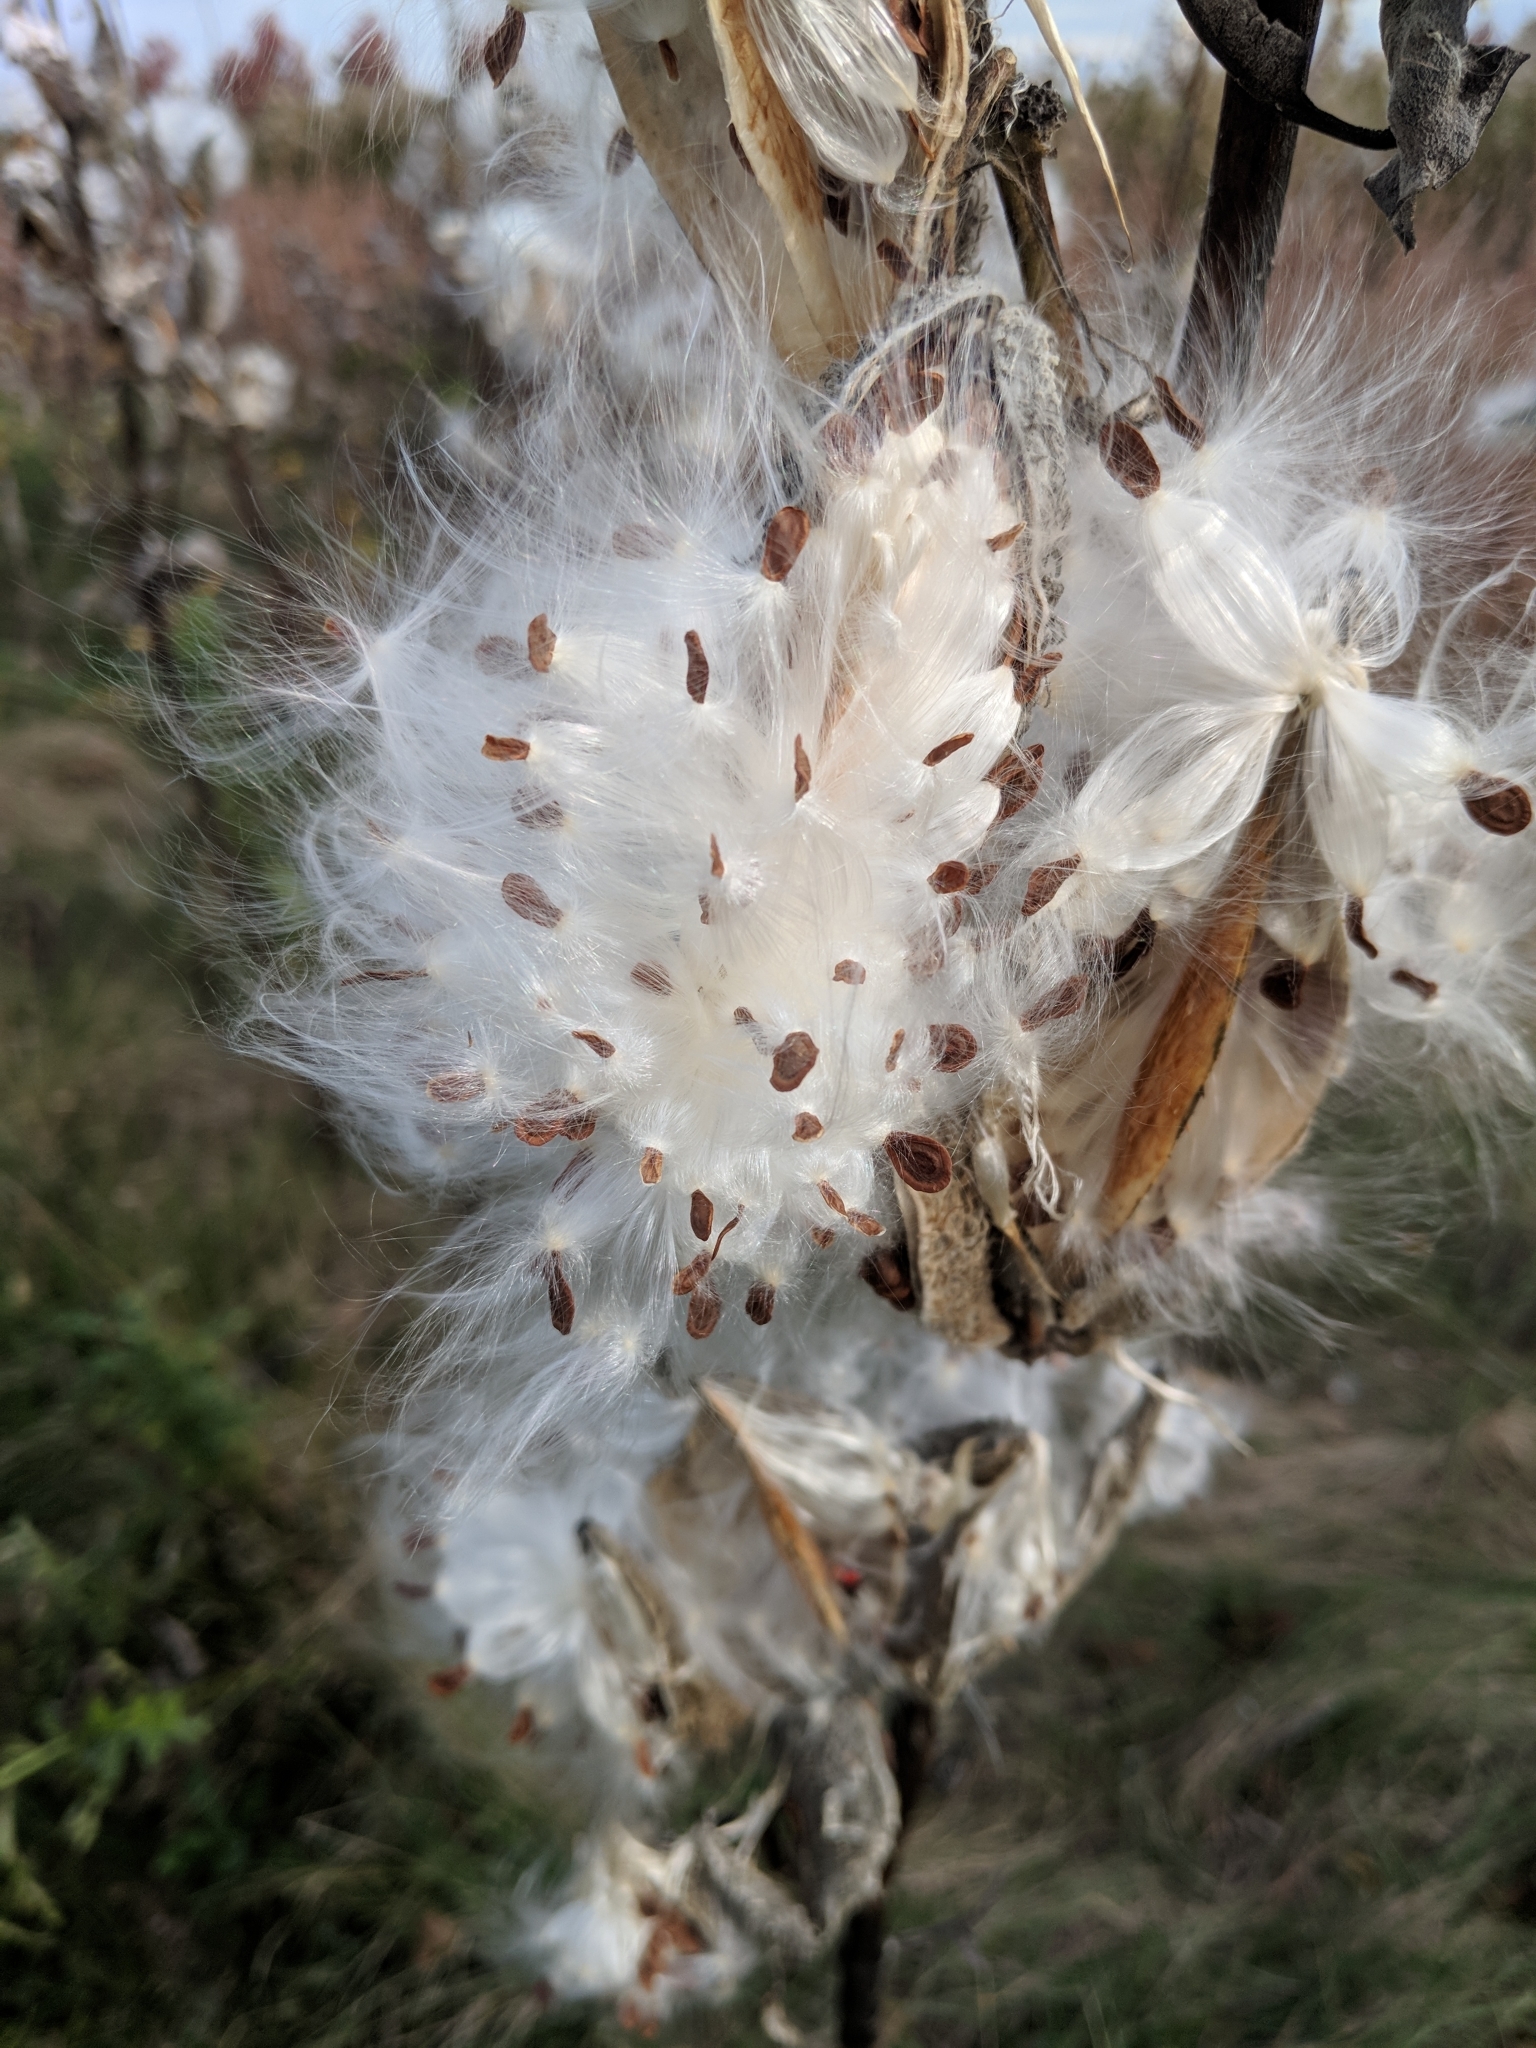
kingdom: Plantae
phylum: Tracheophyta
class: Magnoliopsida
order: Gentianales
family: Apocynaceae
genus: Asclepias
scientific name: Asclepias syriaca
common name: Common milkweed
